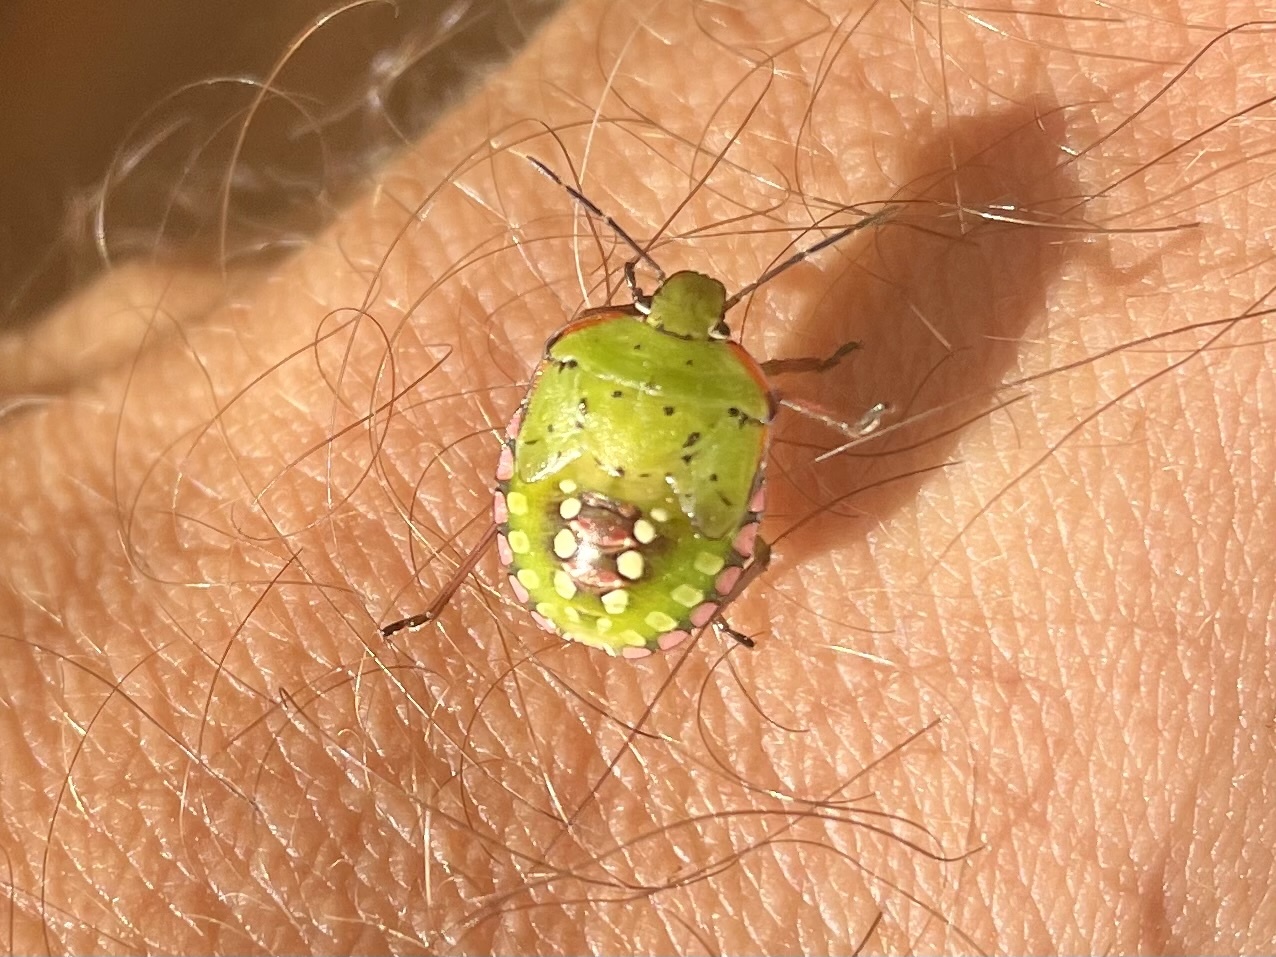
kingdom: Animalia
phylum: Arthropoda
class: Insecta
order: Hemiptera
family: Pentatomidae
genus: Nezara
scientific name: Nezara viridula
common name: Southern green stink bug
